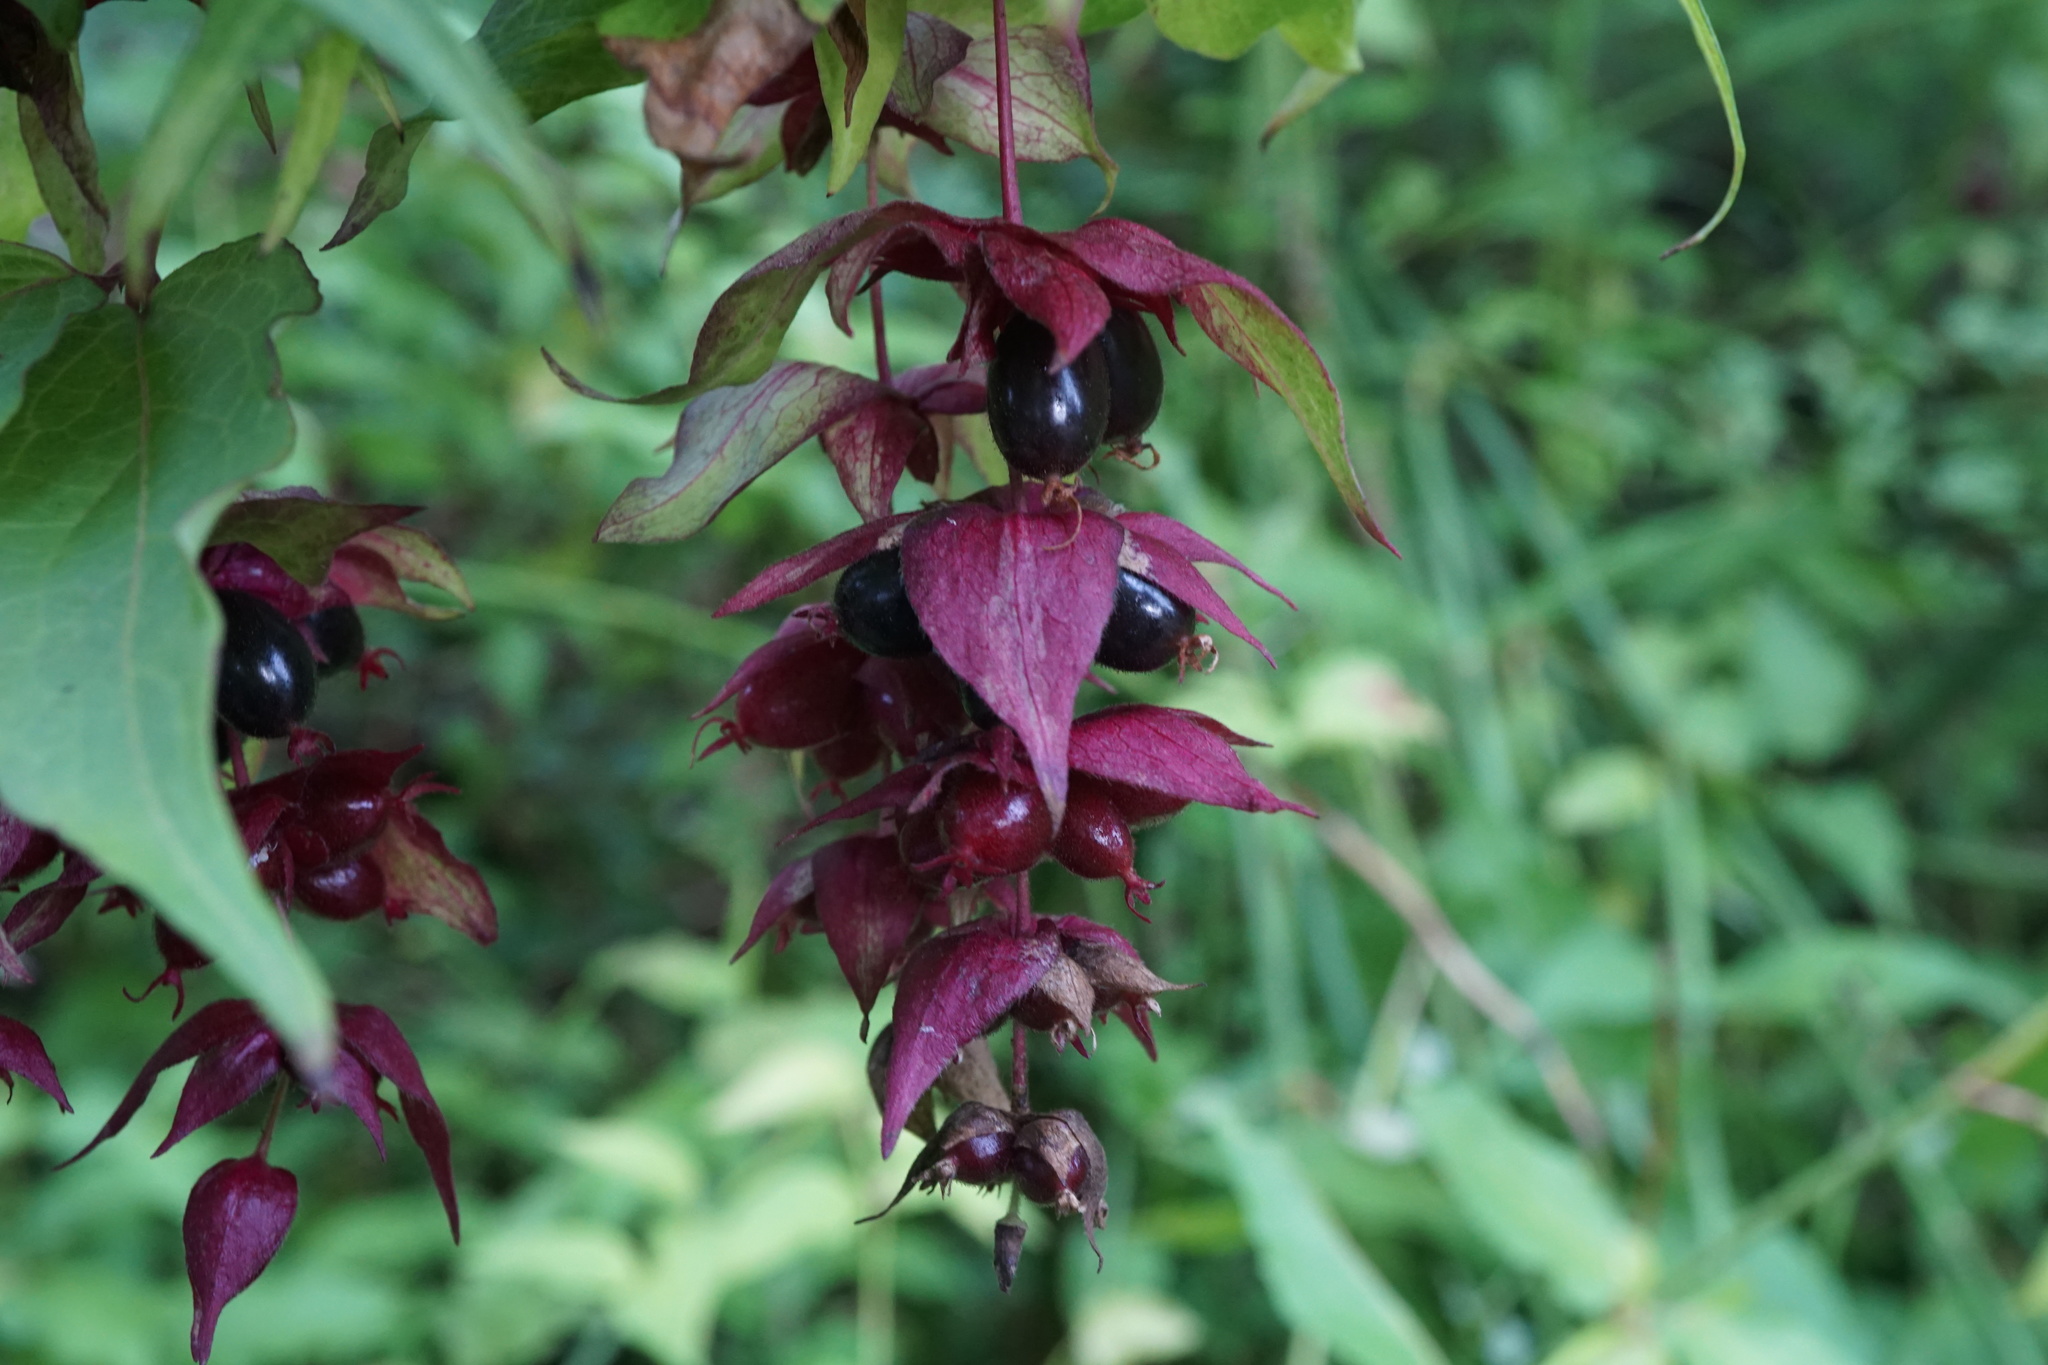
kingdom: Plantae
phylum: Tracheophyta
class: Magnoliopsida
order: Dipsacales
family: Caprifoliaceae
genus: Leycesteria
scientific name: Leycesteria formosa
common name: Himalayan honeysuckle
